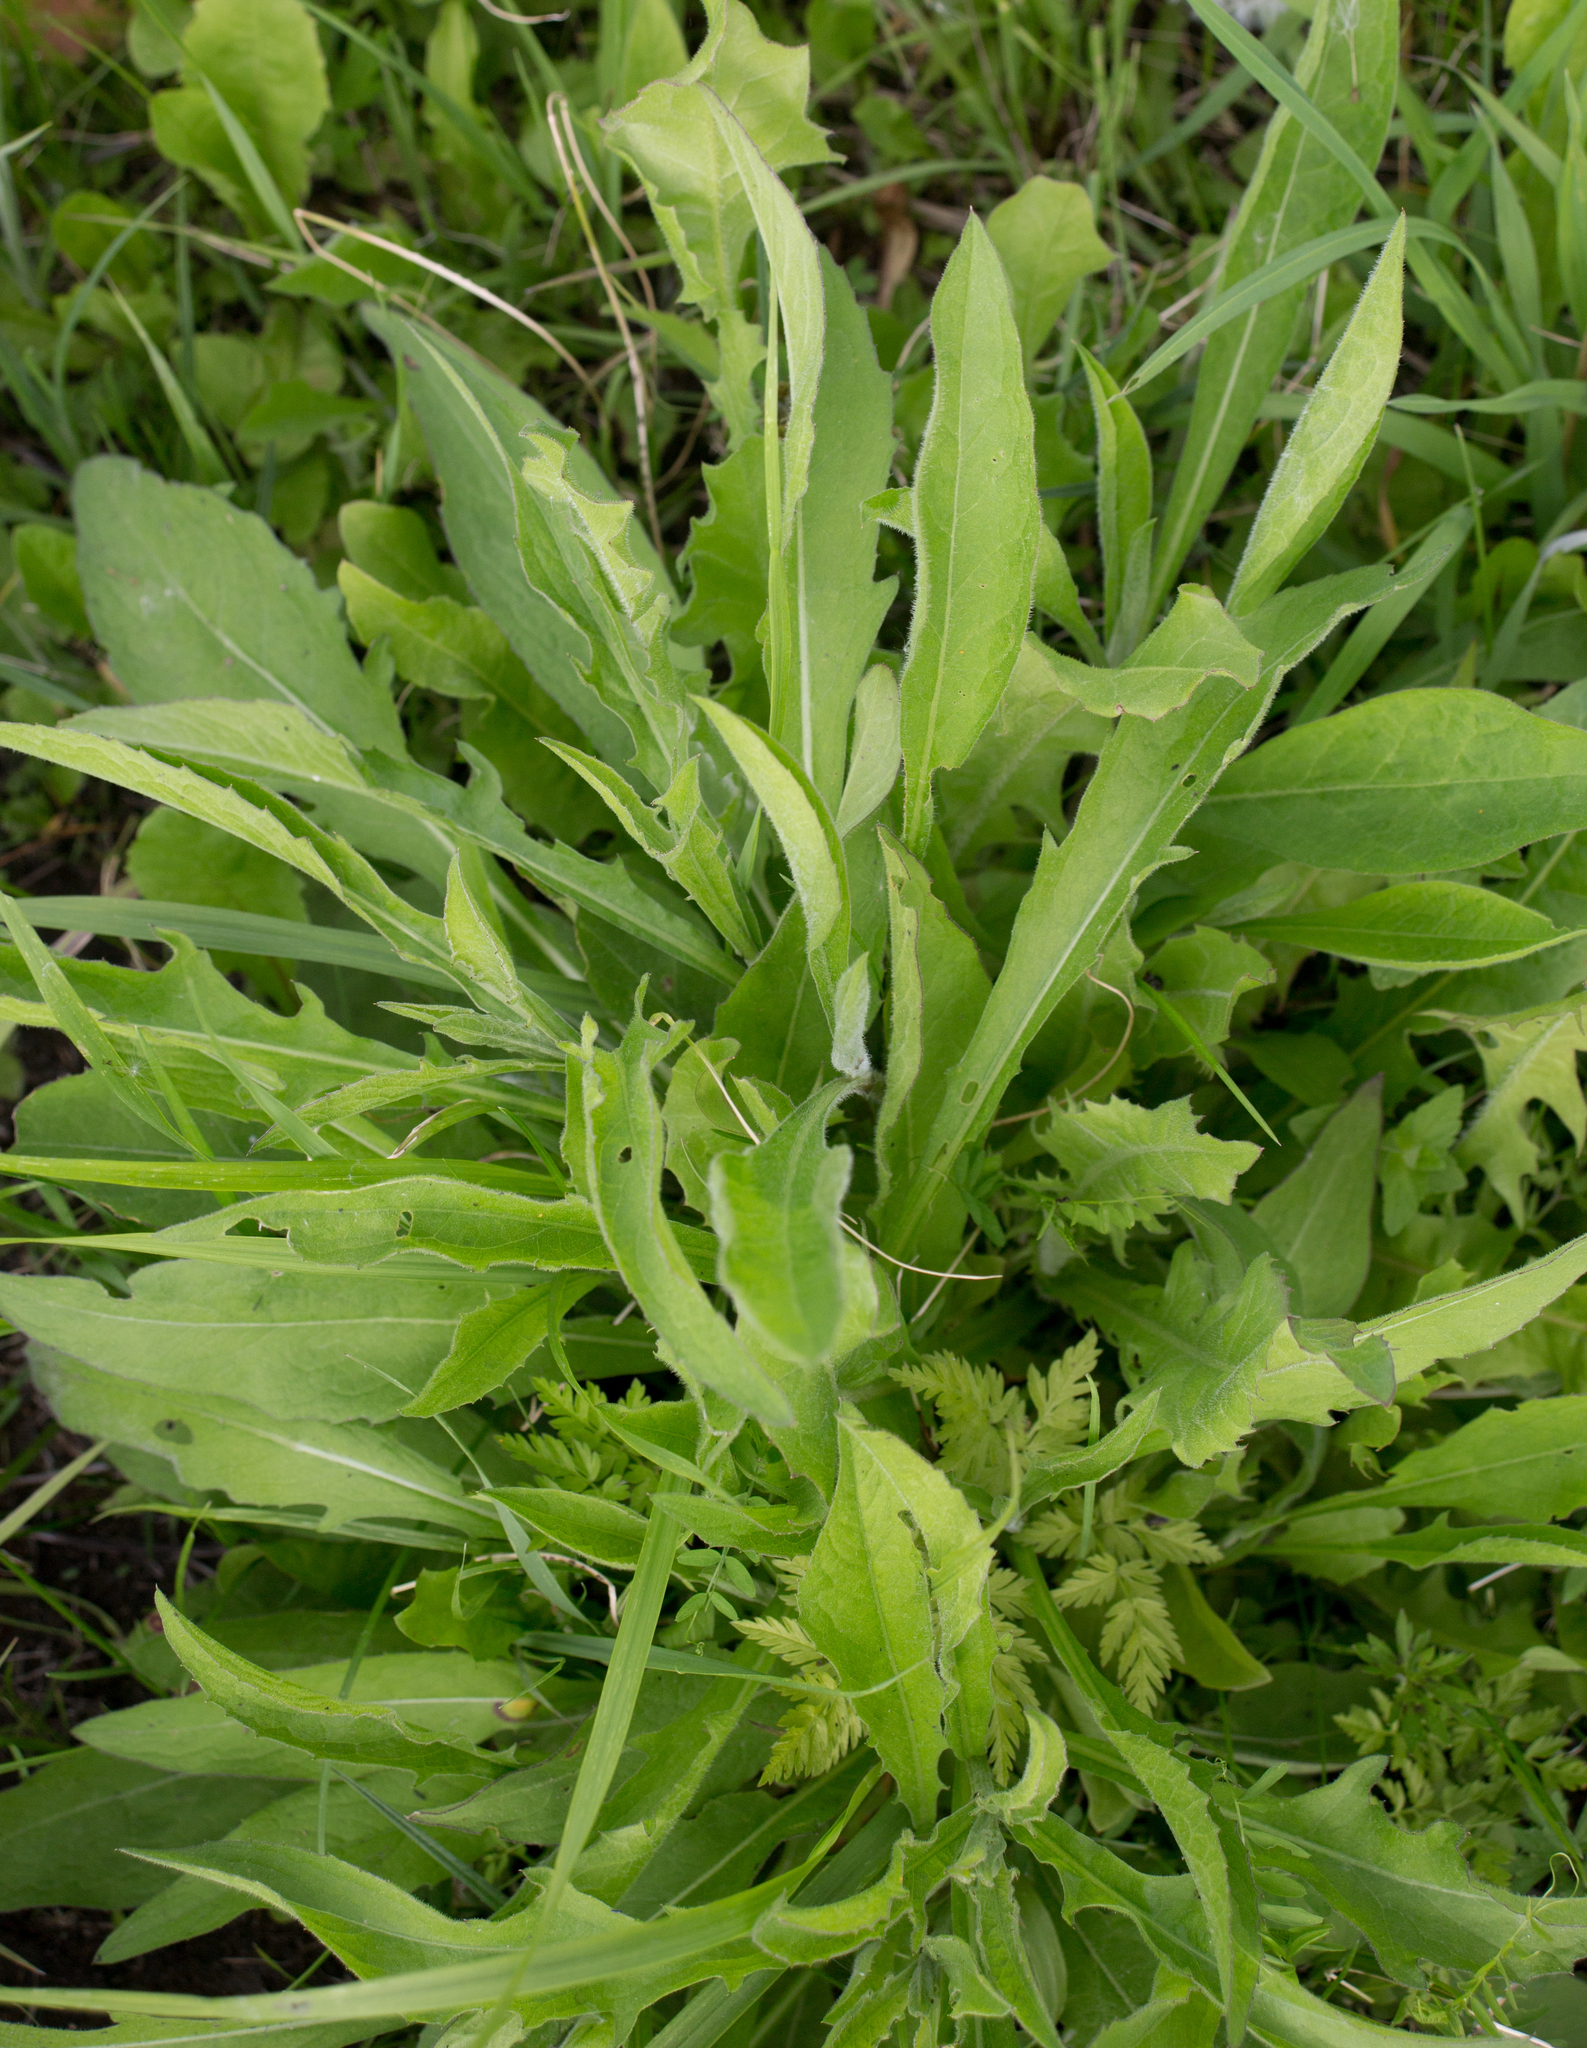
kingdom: Plantae
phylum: Tracheophyta
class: Magnoliopsida
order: Asterales
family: Asteraceae
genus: Centaurea
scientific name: Centaurea jacea
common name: Brown knapweed
